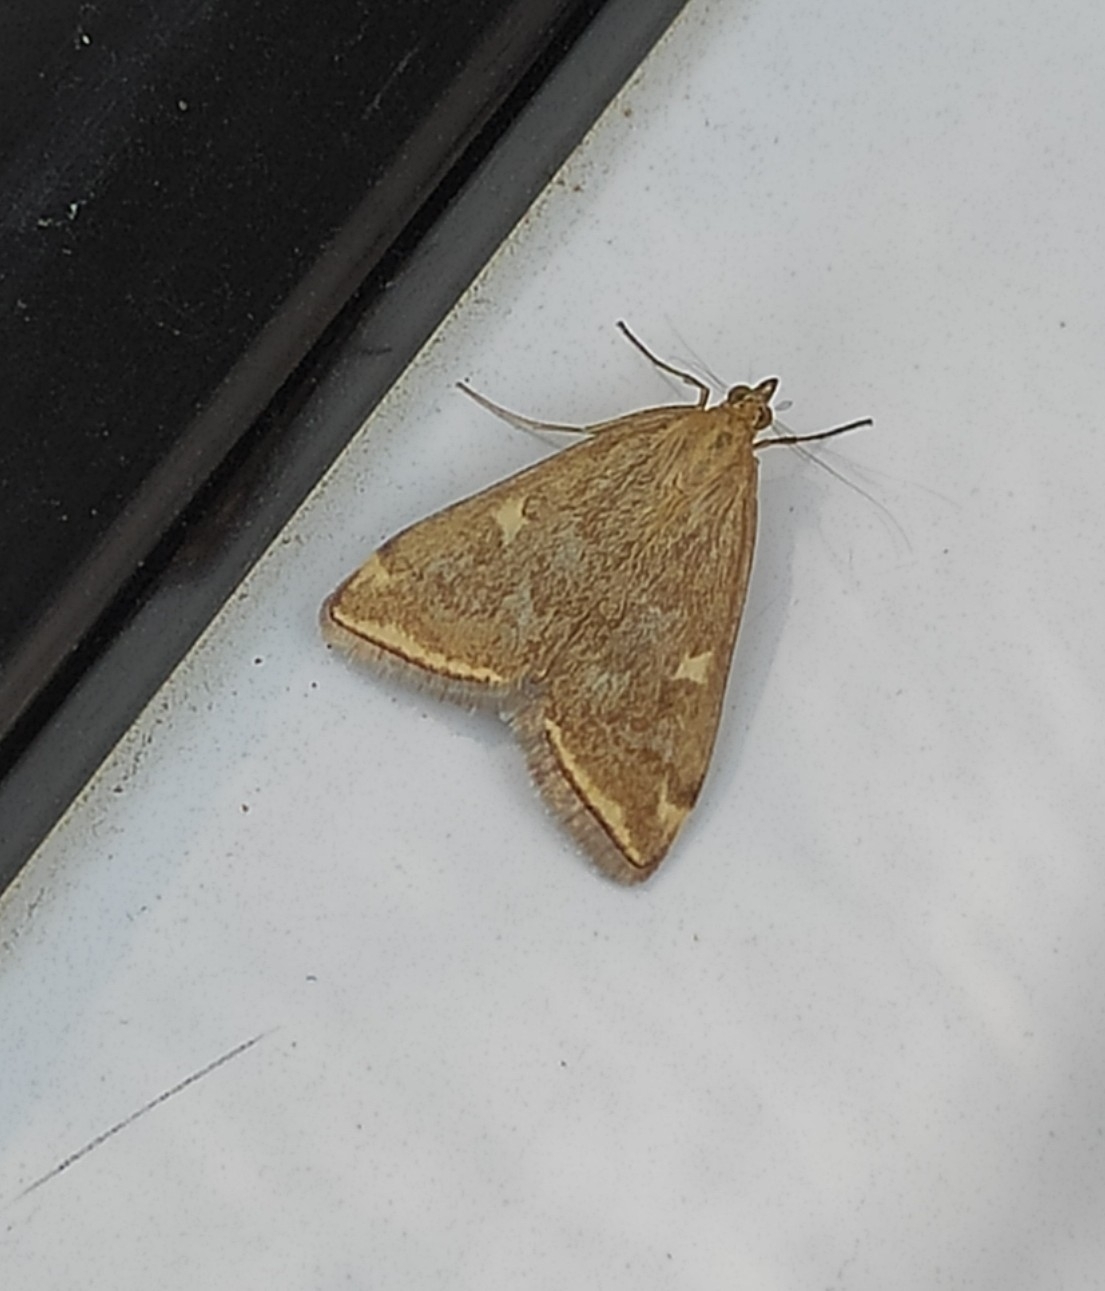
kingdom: Animalia
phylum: Arthropoda
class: Insecta
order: Lepidoptera
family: Crambidae
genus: Loxostege
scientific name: Loxostege sticticalis
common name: Crambid moth
